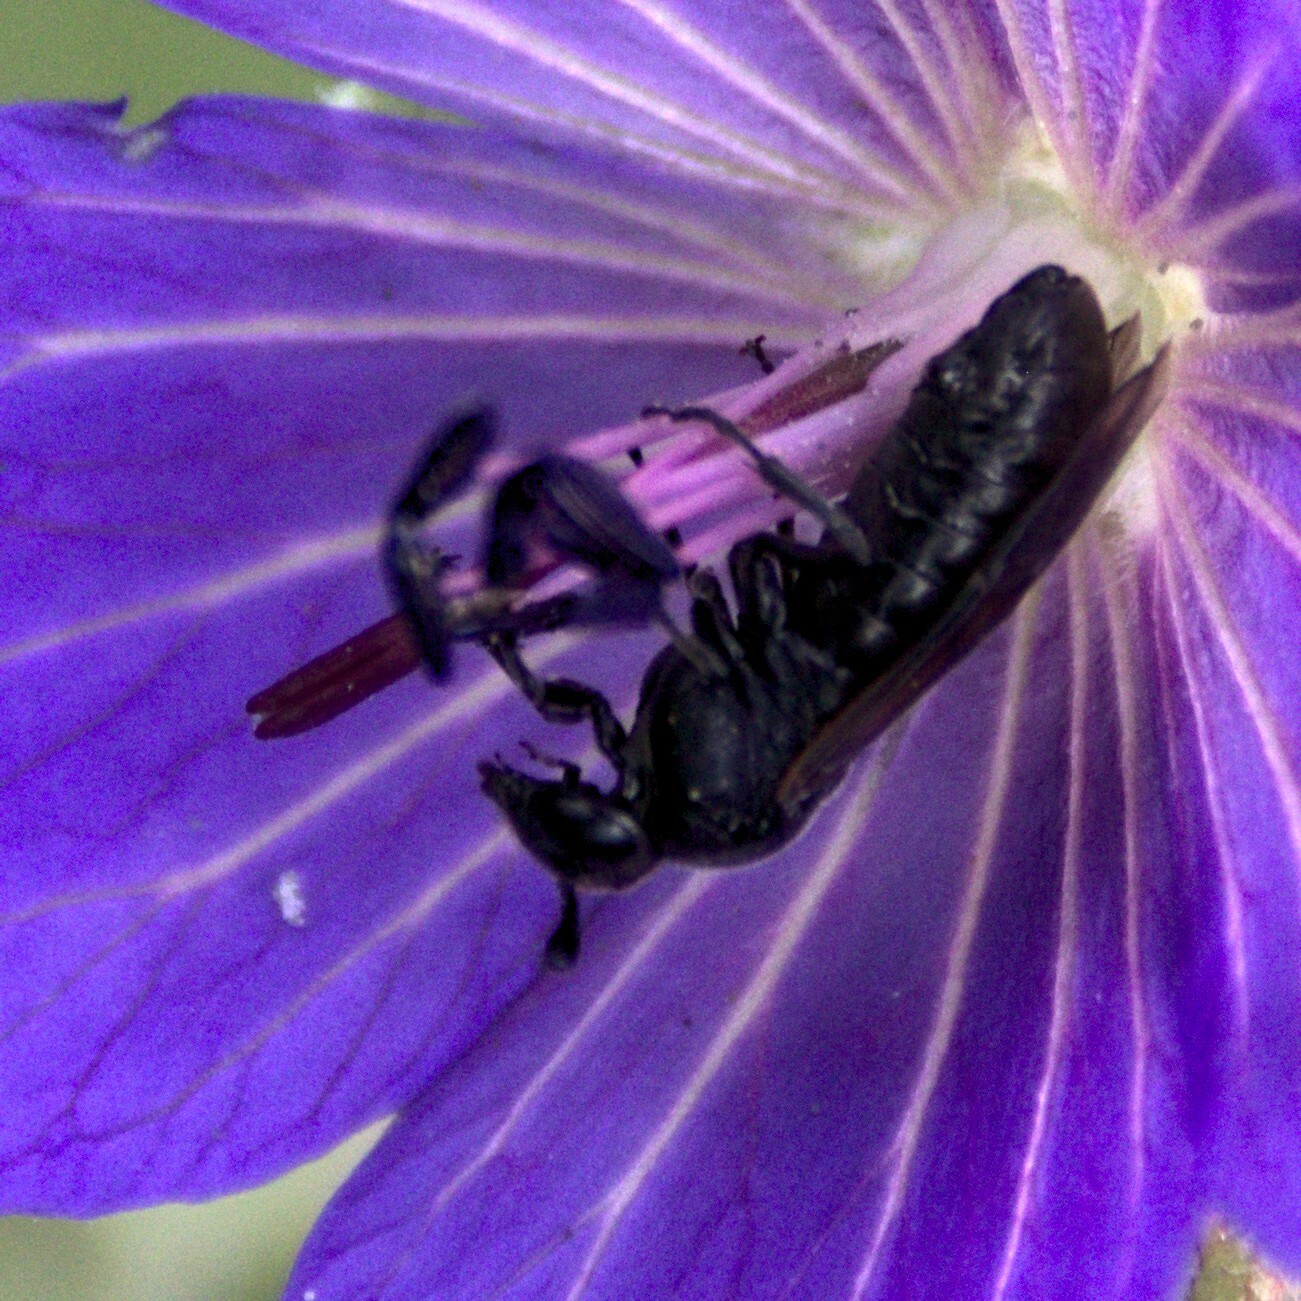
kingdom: Animalia
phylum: Arthropoda
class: Insecta
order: Hymenoptera
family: Cimbicidae
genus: Corynis
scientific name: Corynis obscura
